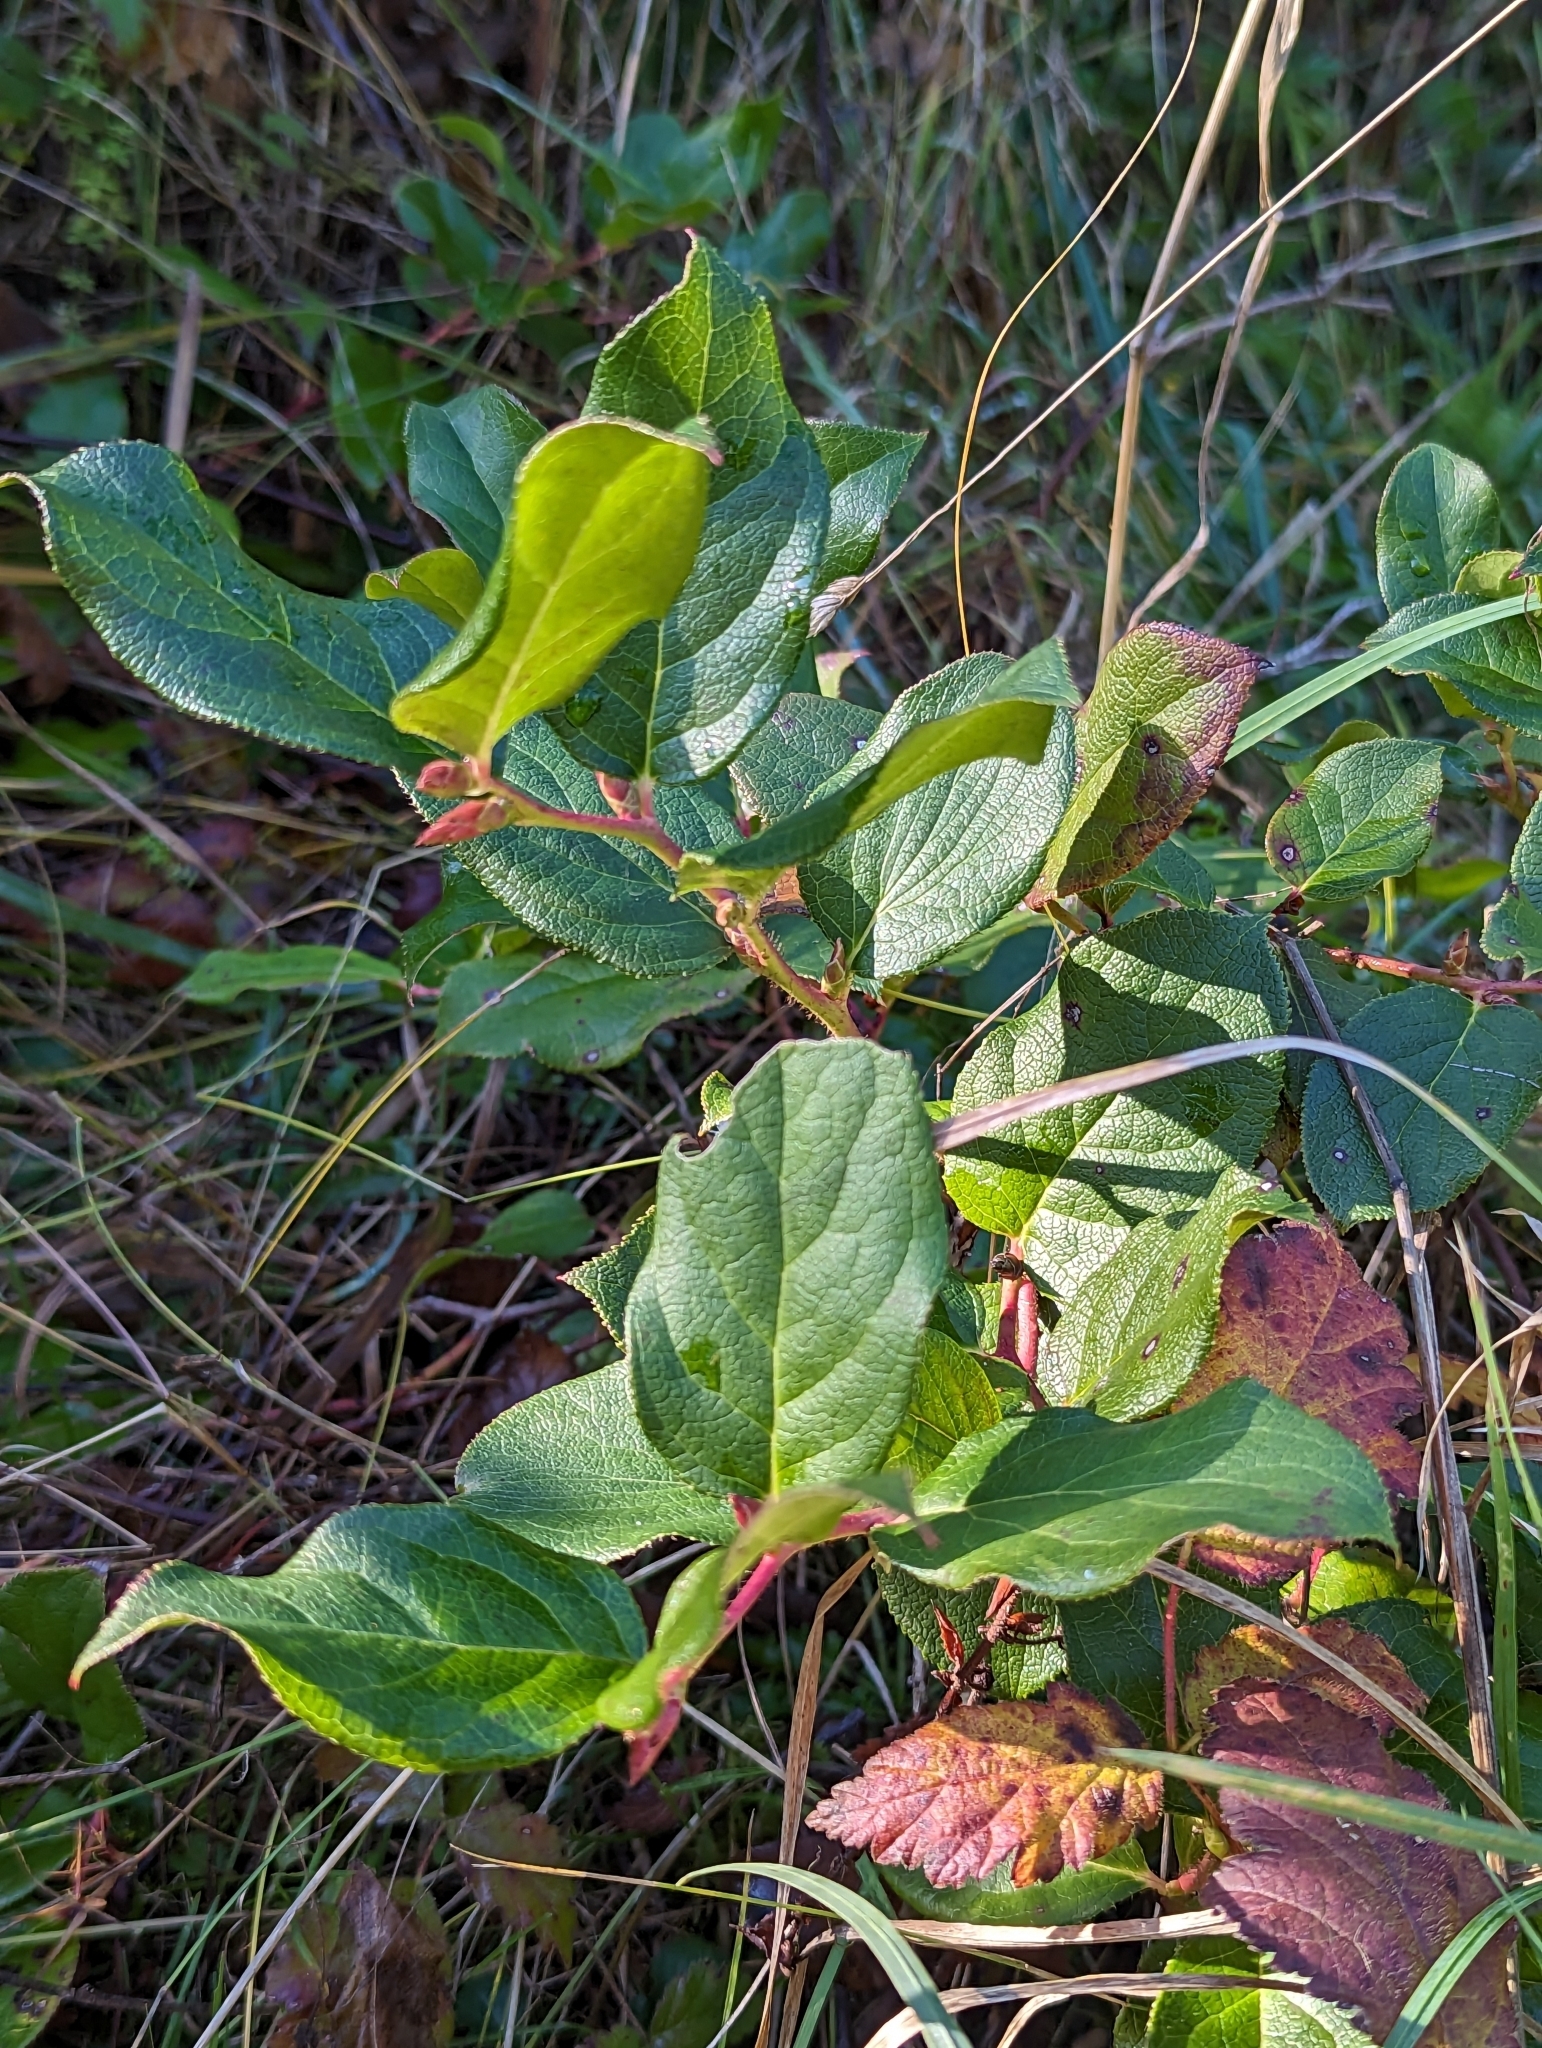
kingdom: Plantae
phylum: Tracheophyta
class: Magnoliopsida
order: Ericales
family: Ericaceae
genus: Gaultheria
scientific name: Gaultheria shallon
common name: Shallon
